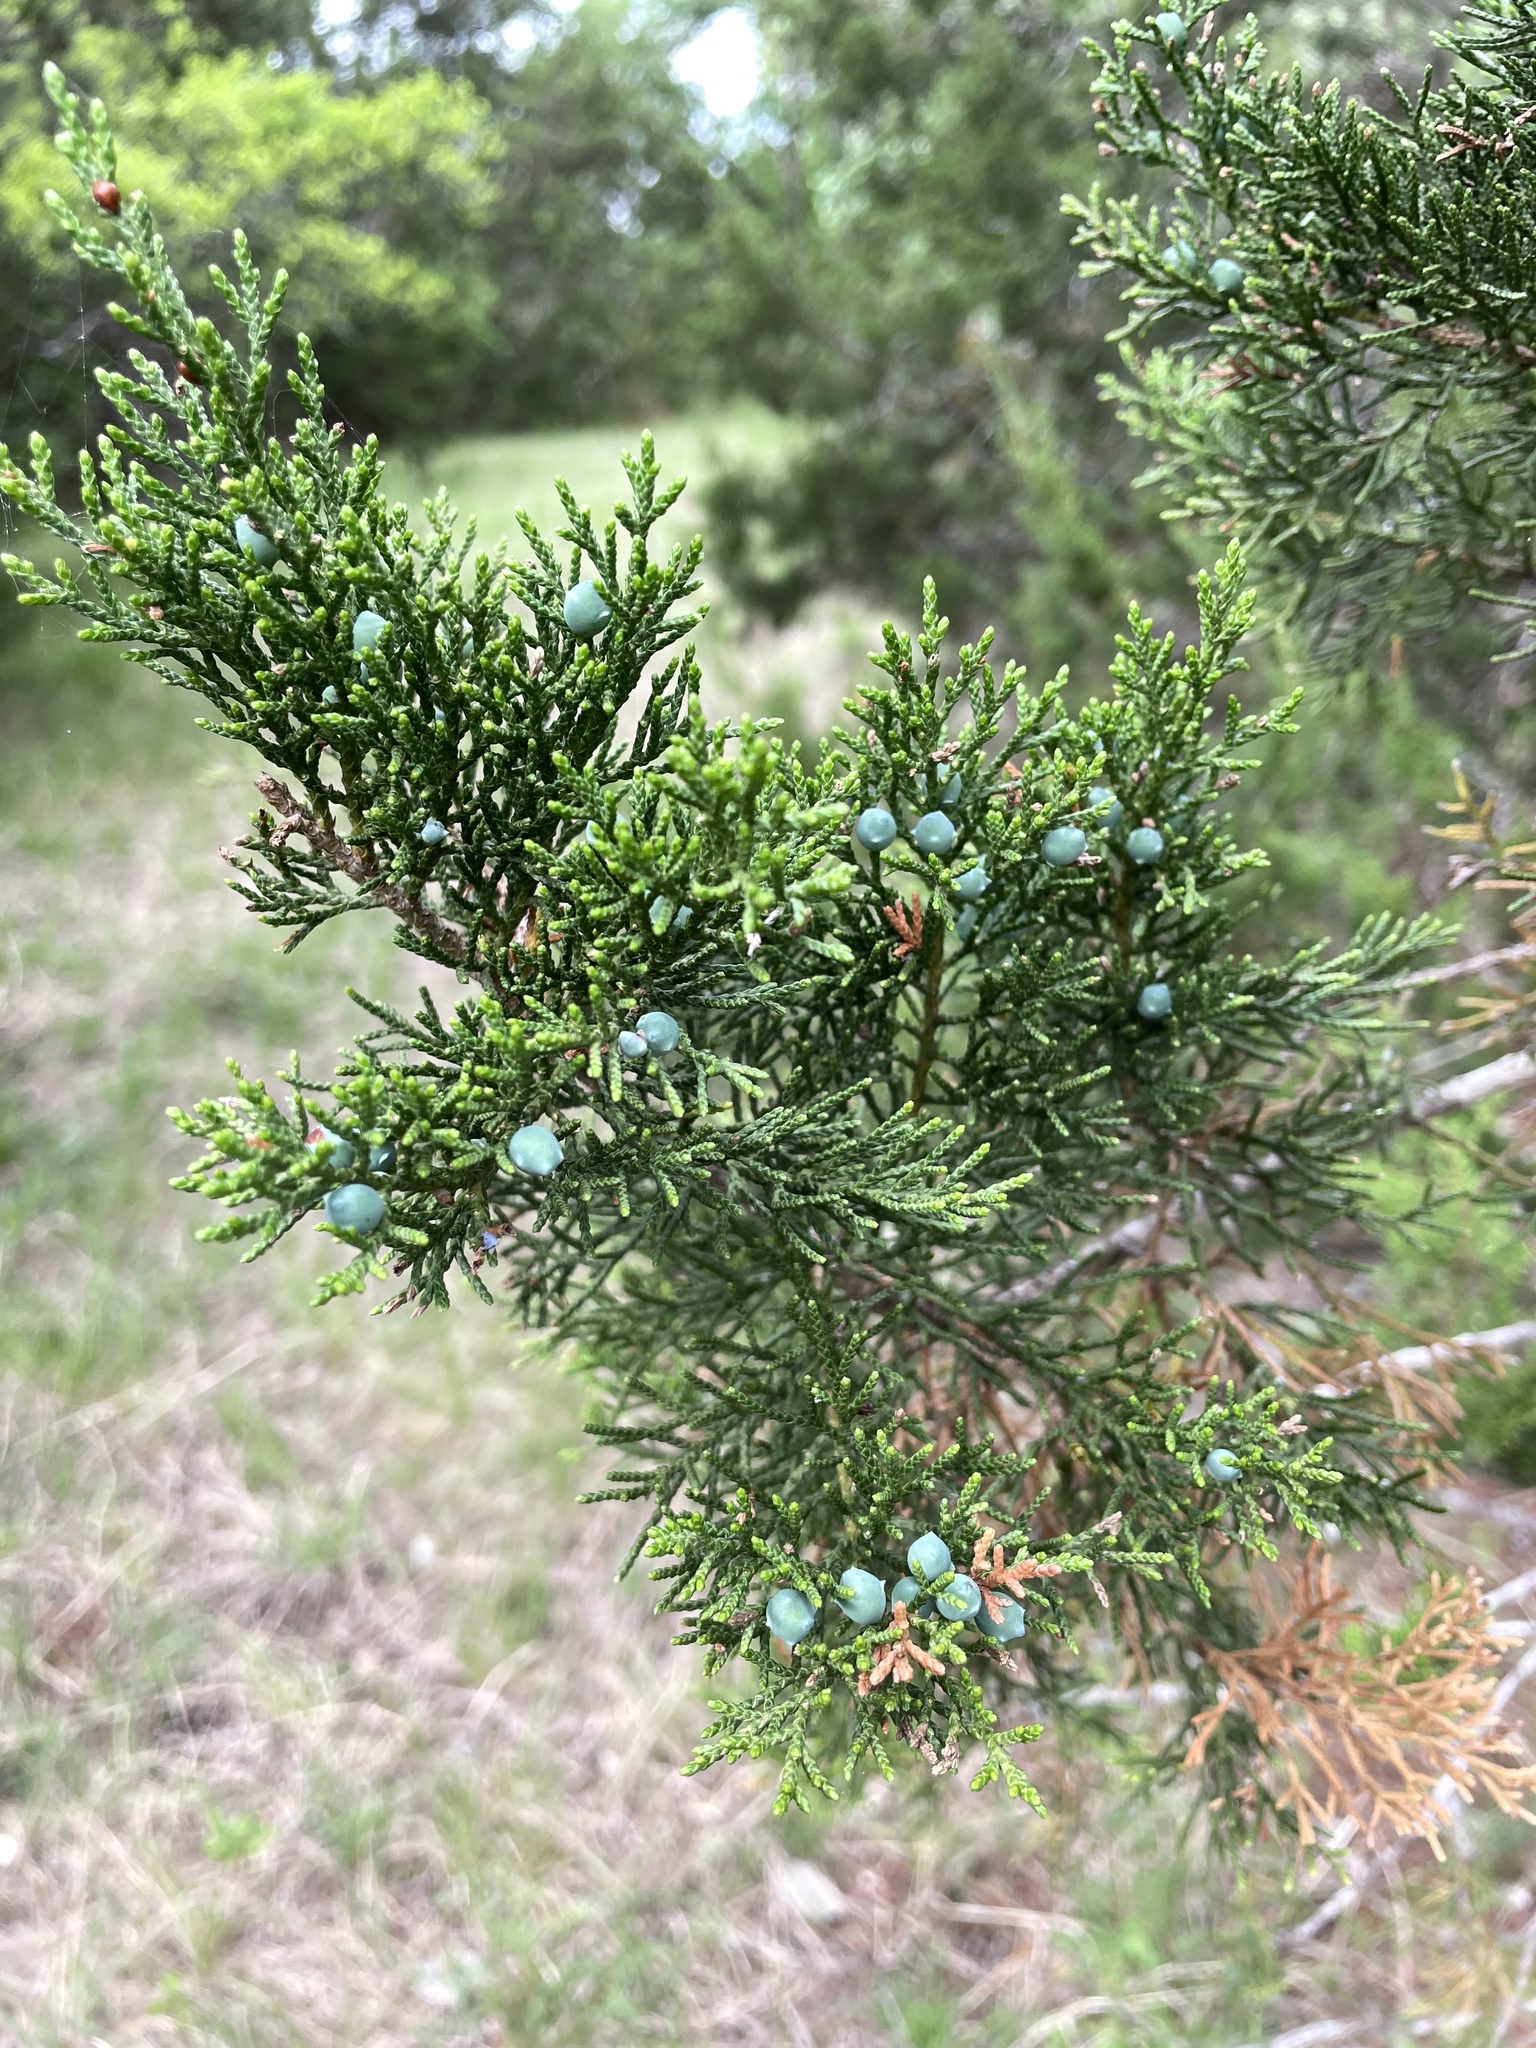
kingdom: Plantae
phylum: Tracheophyta
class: Pinopsida
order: Pinales
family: Cupressaceae
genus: Juniperus
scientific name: Juniperus ashei
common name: Mexican juniper
